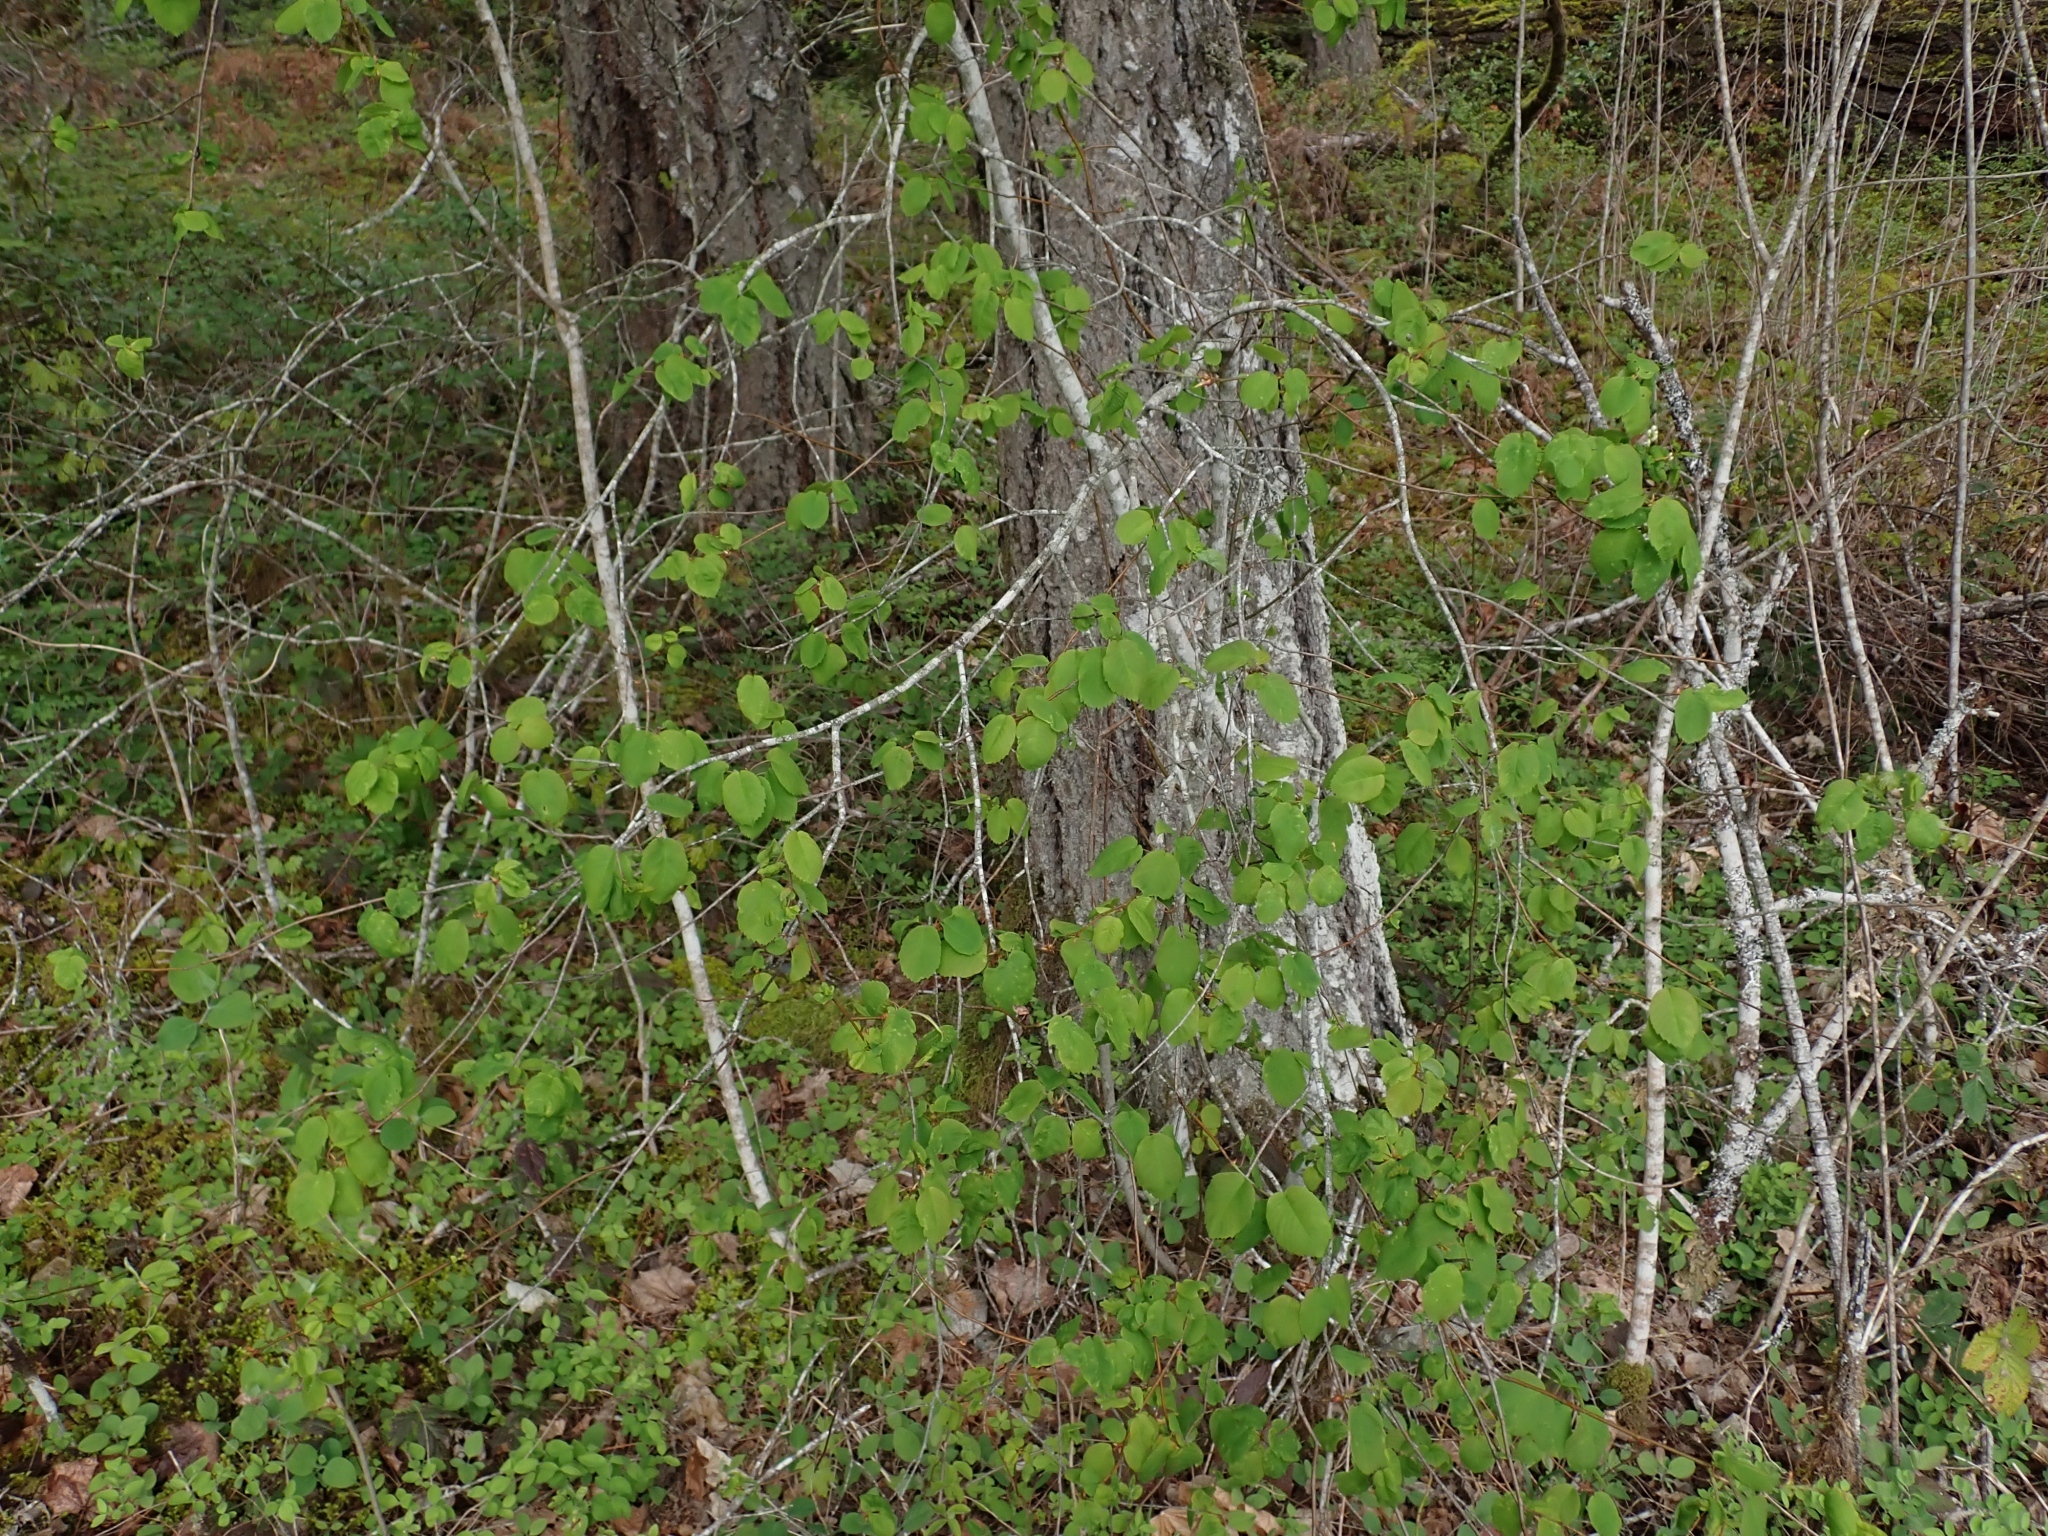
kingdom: Plantae
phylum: Tracheophyta
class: Magnoliopsida
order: Rosales
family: Rosaceae
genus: Amelanchier
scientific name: Amelanchier alnifolia
